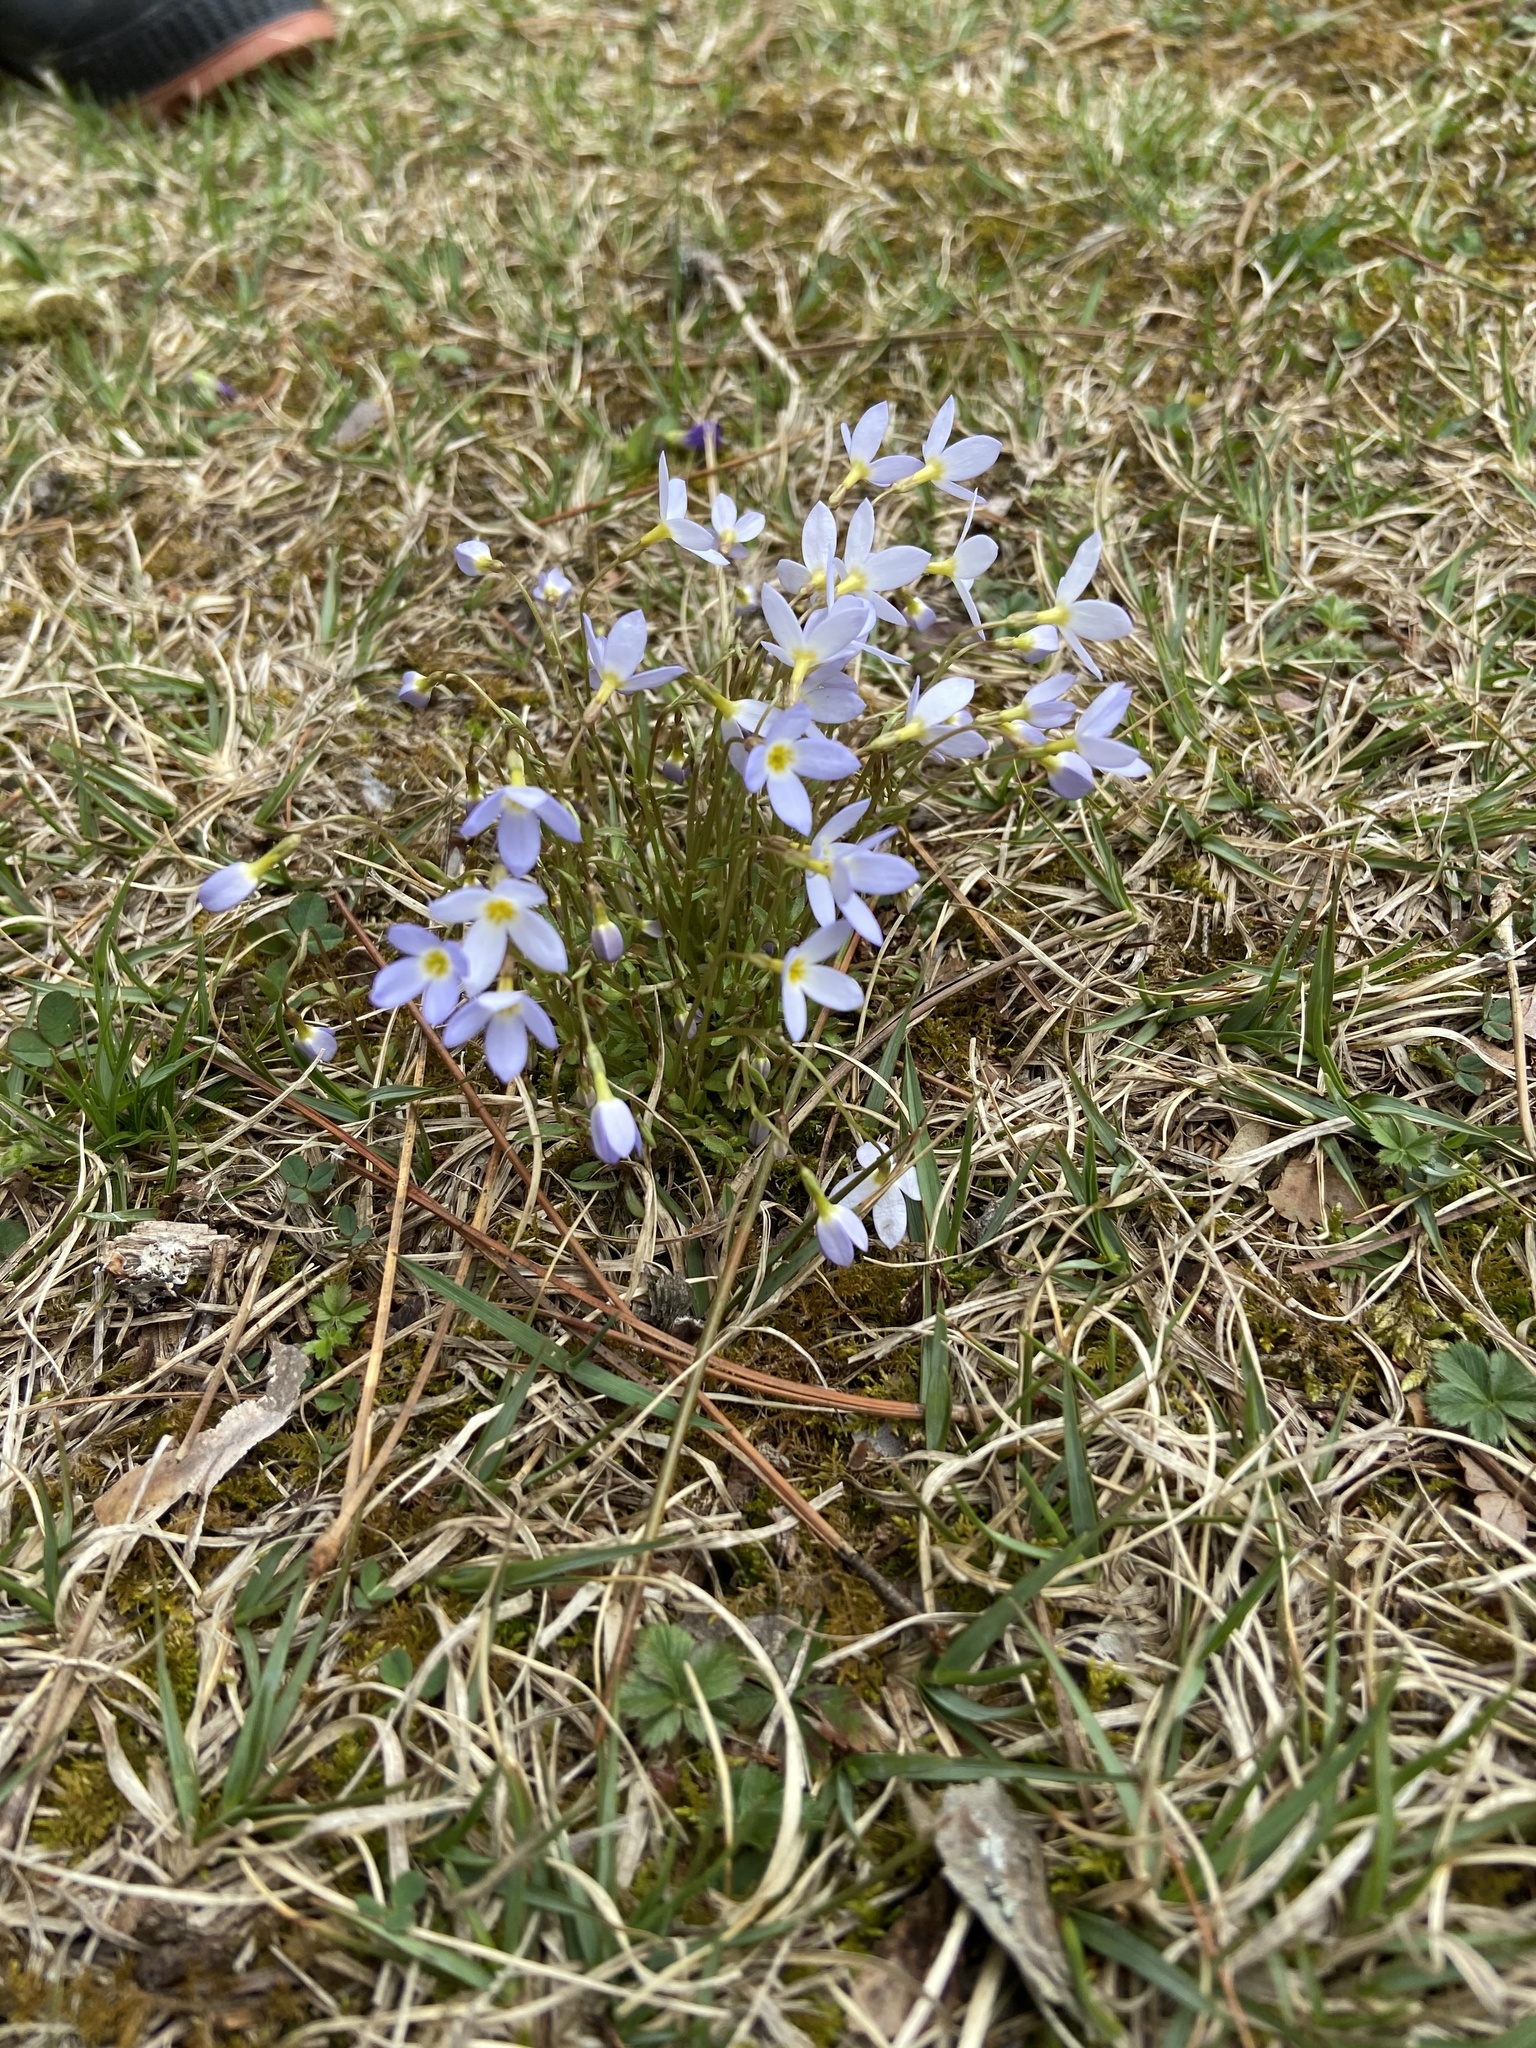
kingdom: Plantae
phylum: Tracheophyta
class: Magnoliopsida
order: Gentianales
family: Rubiaceae
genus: Houstonia
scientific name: Houstonia caerulea
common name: Bluets
